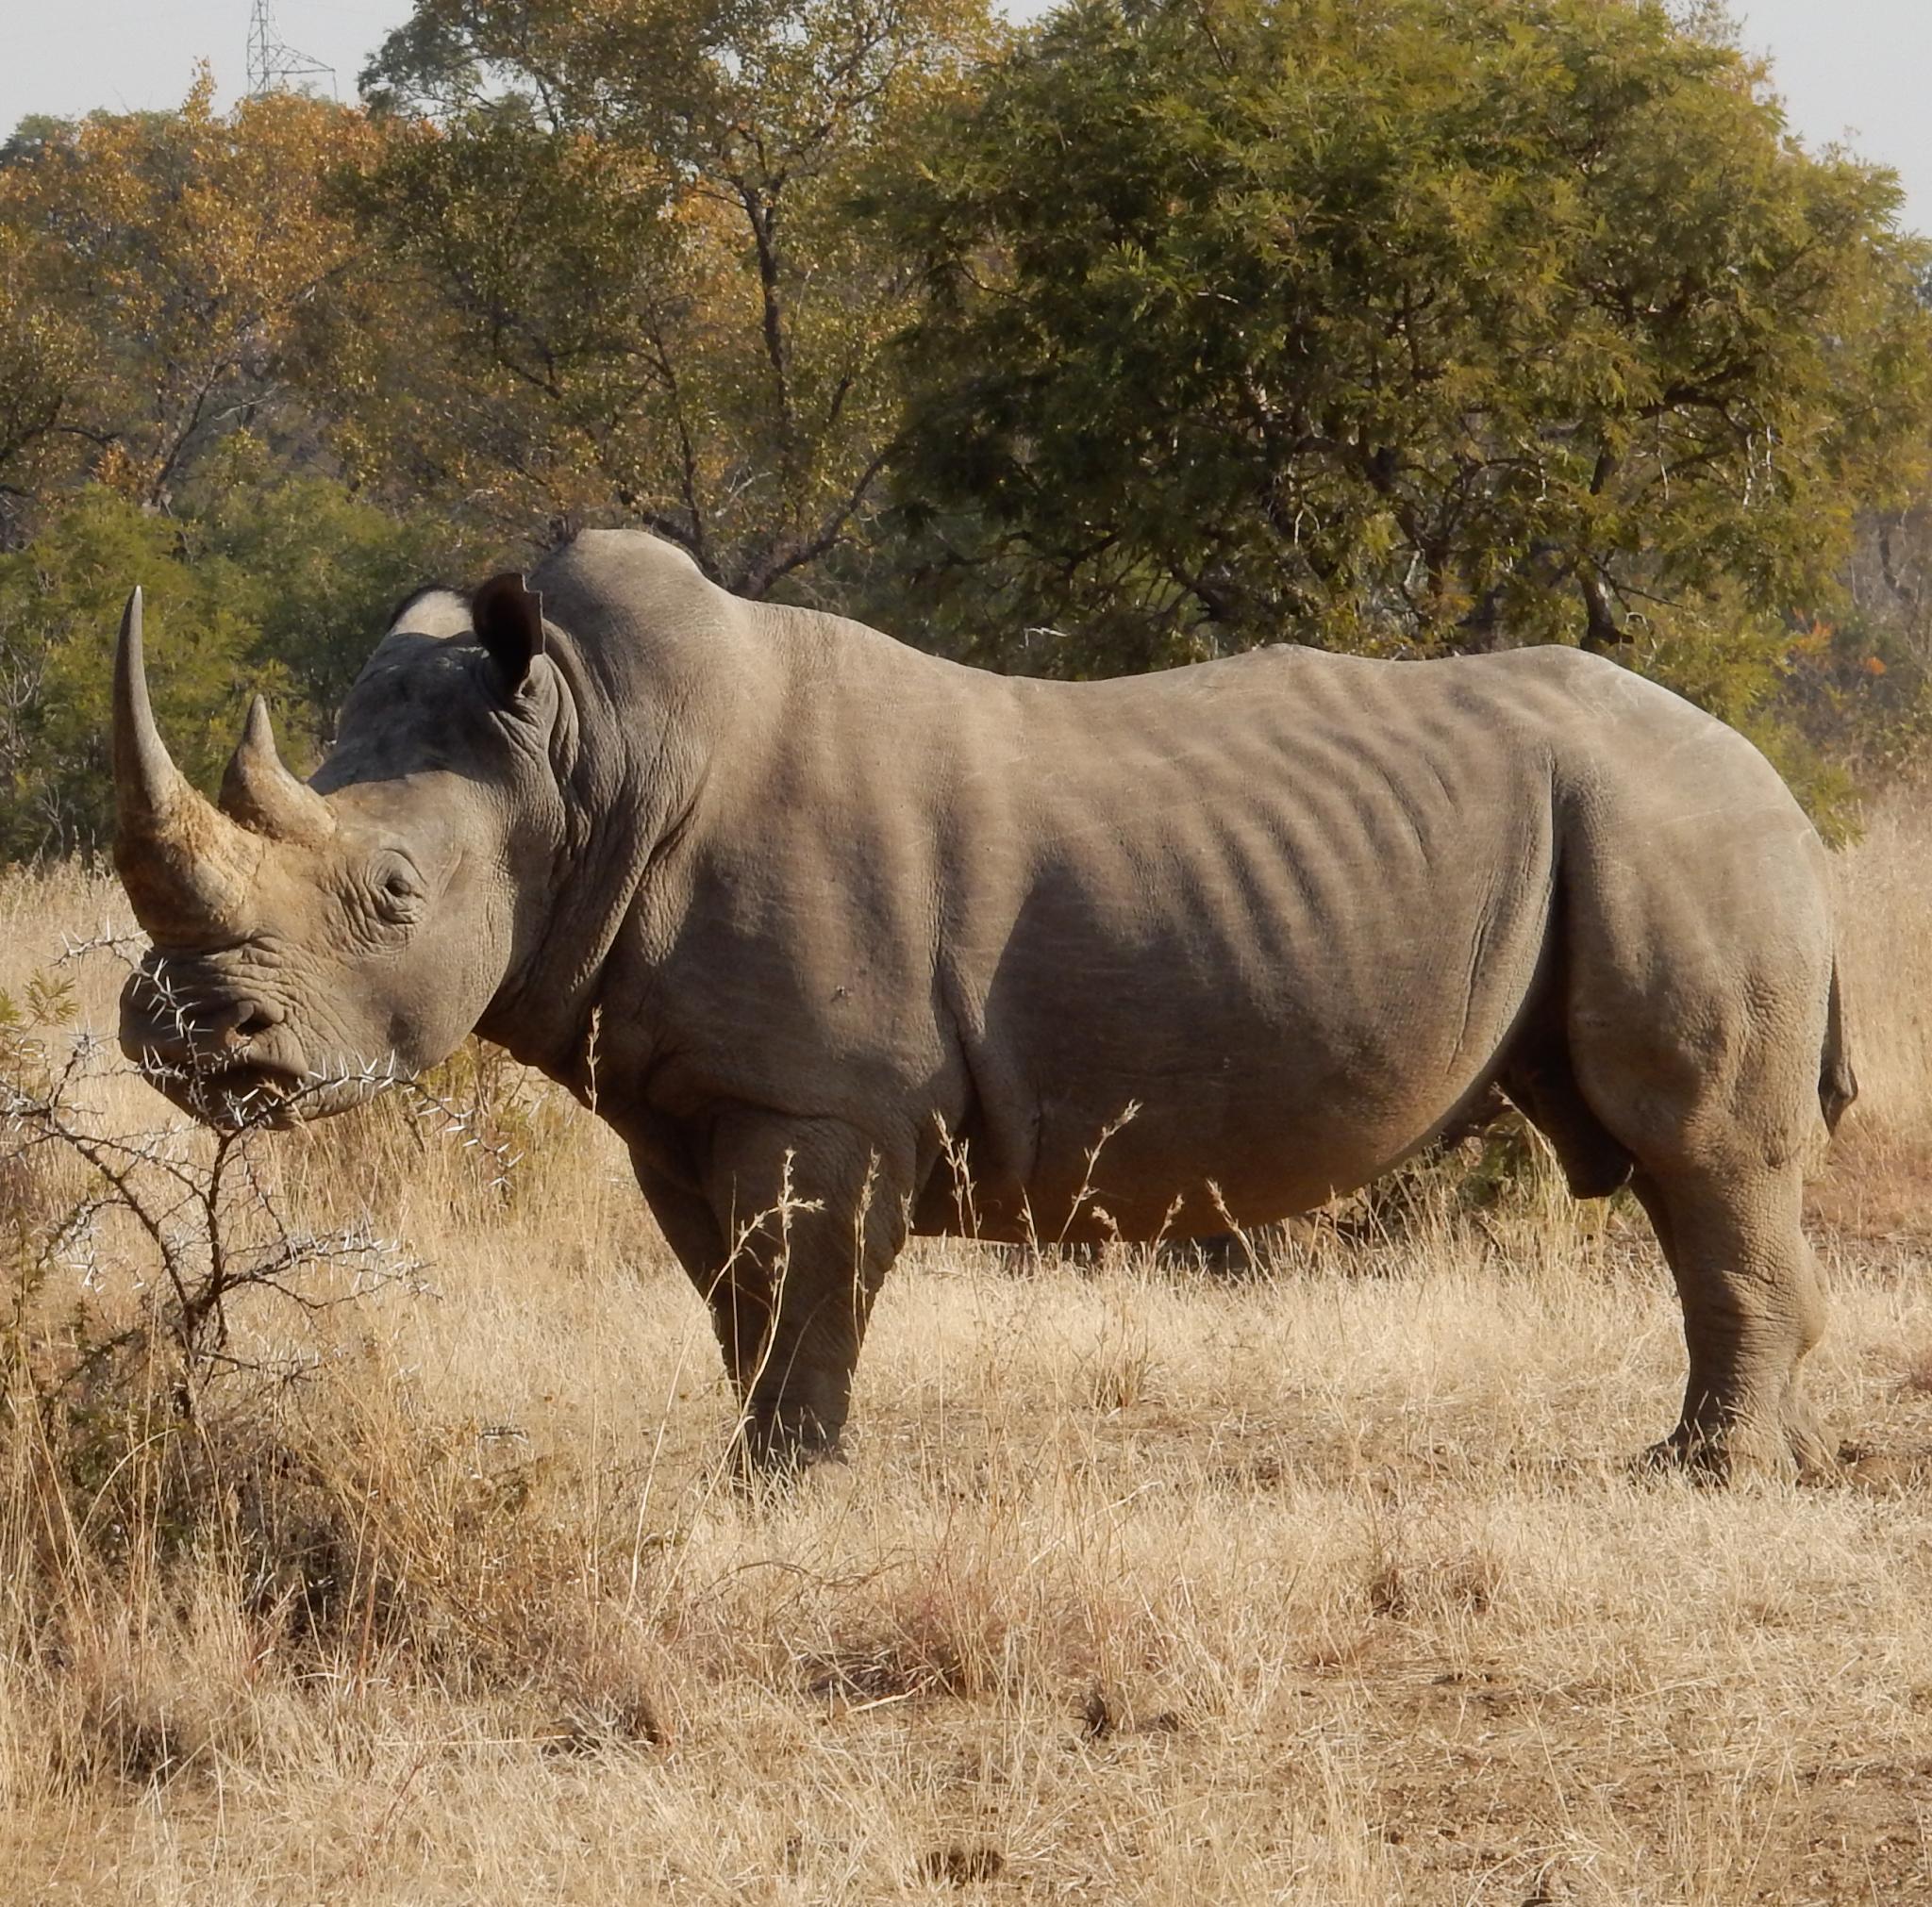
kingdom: Animalia
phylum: Chordata
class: Mammalia
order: Perissodactyla
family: Rhinocerotidae
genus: Ceratotherium
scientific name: Ceratotherium simum
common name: White rhinoceros
